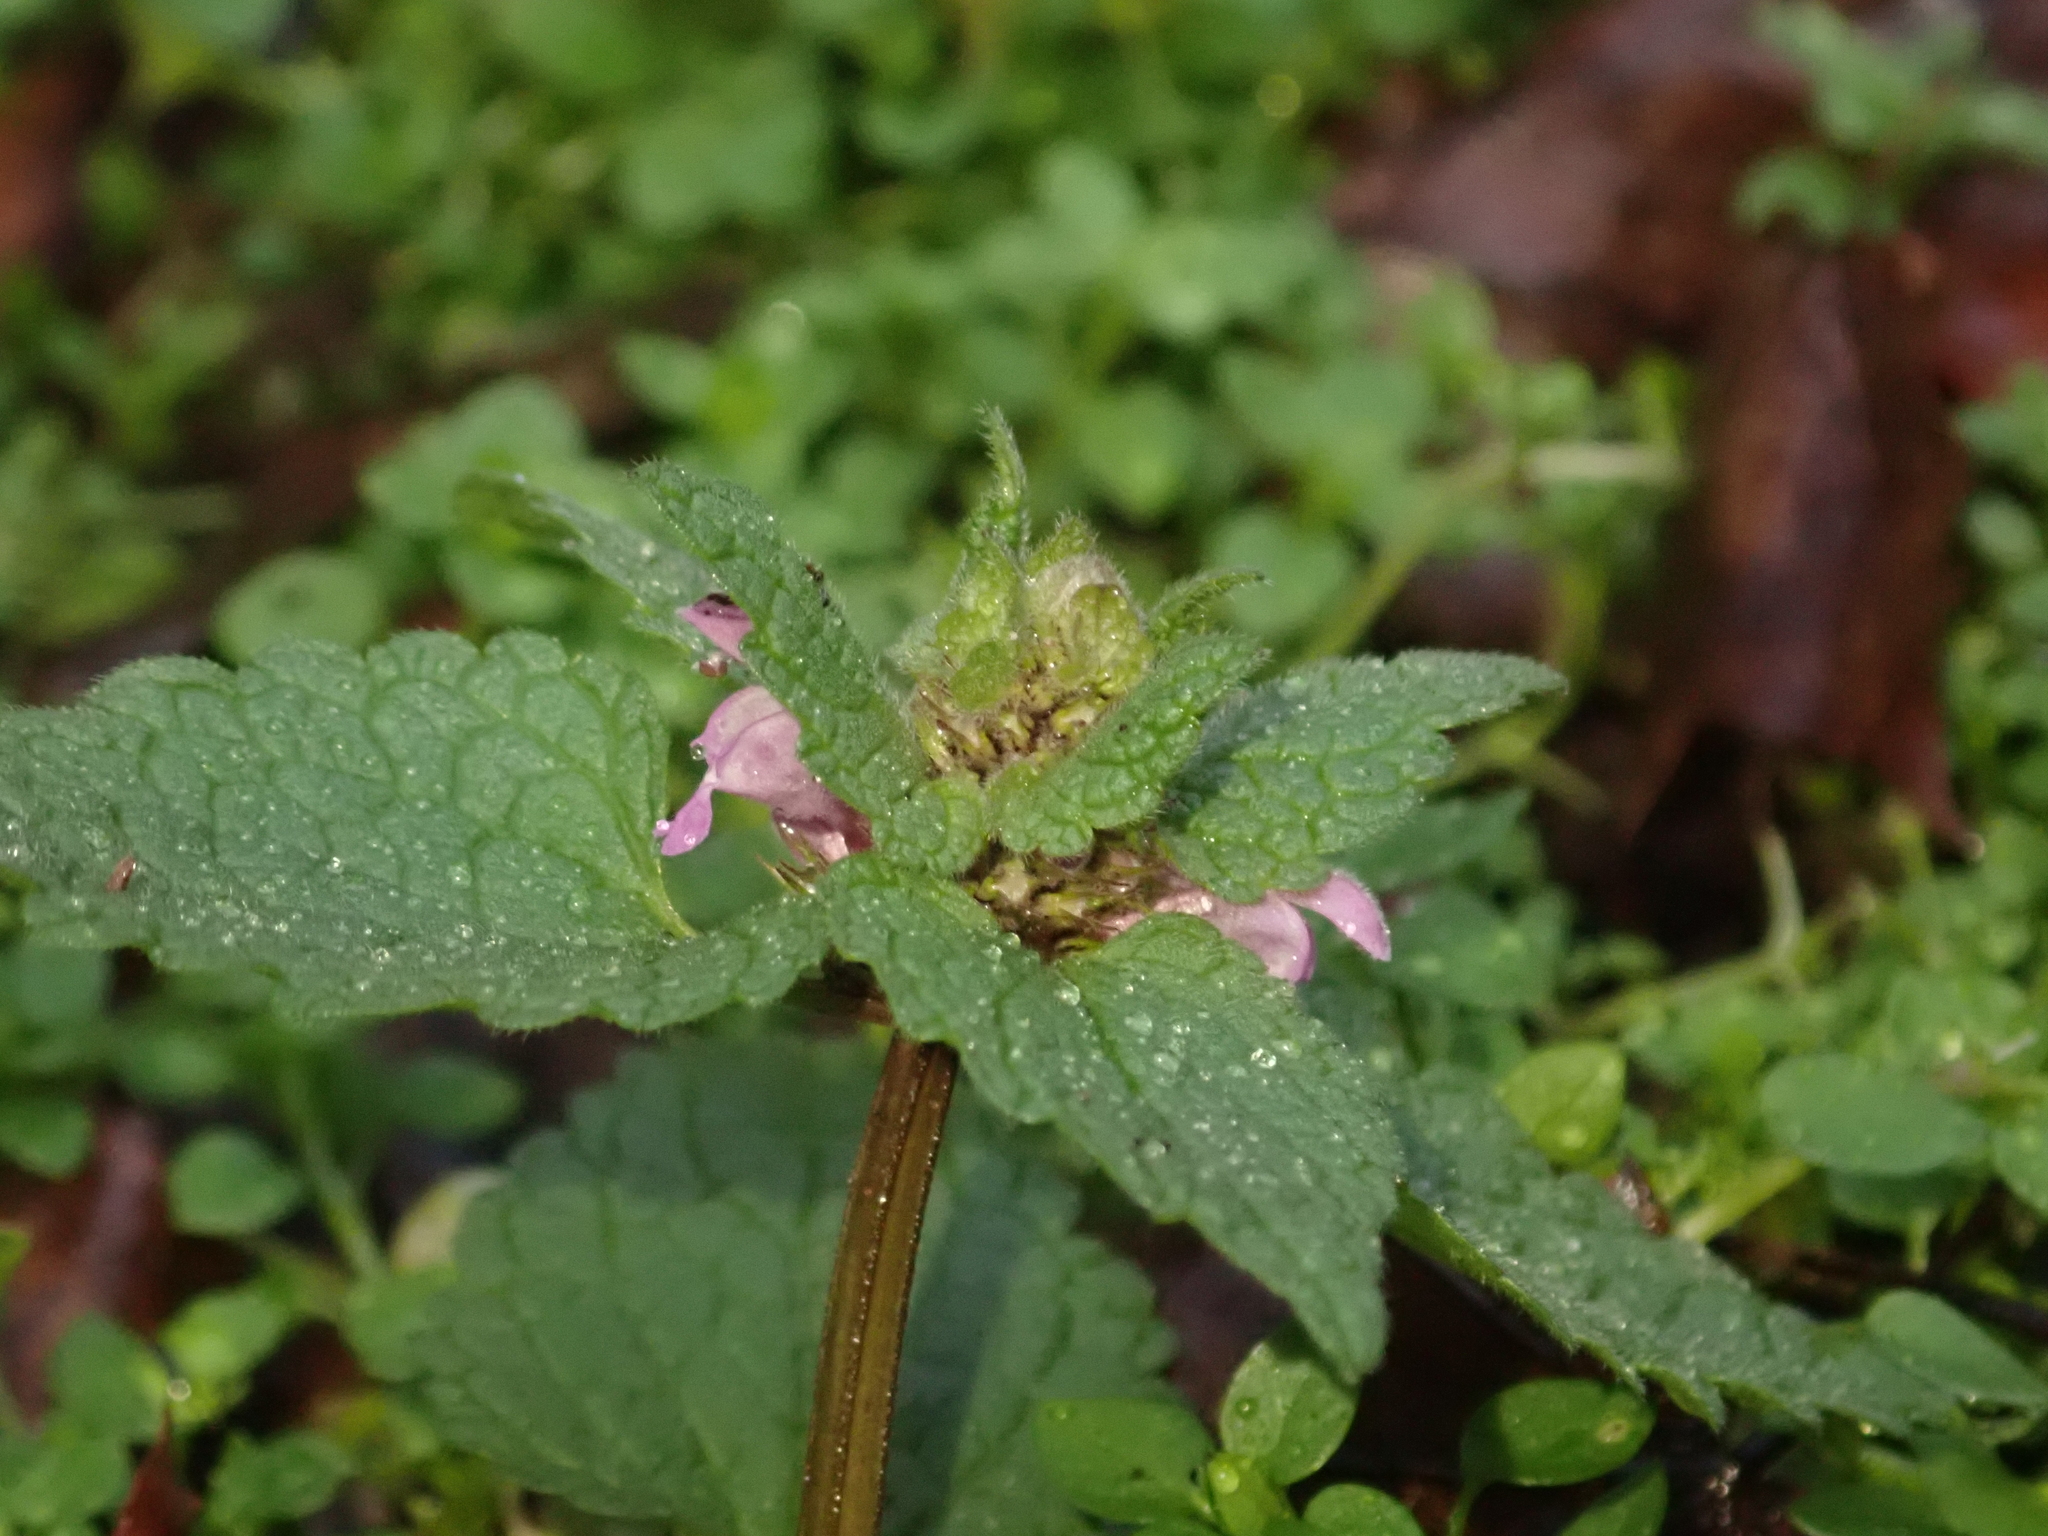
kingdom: Plantae
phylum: Tracheophyta
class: Magnoliopsida
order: Lamiales
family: Lamiaceae
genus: Lamium
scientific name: Lamium purpureum
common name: Red dead-nettle
